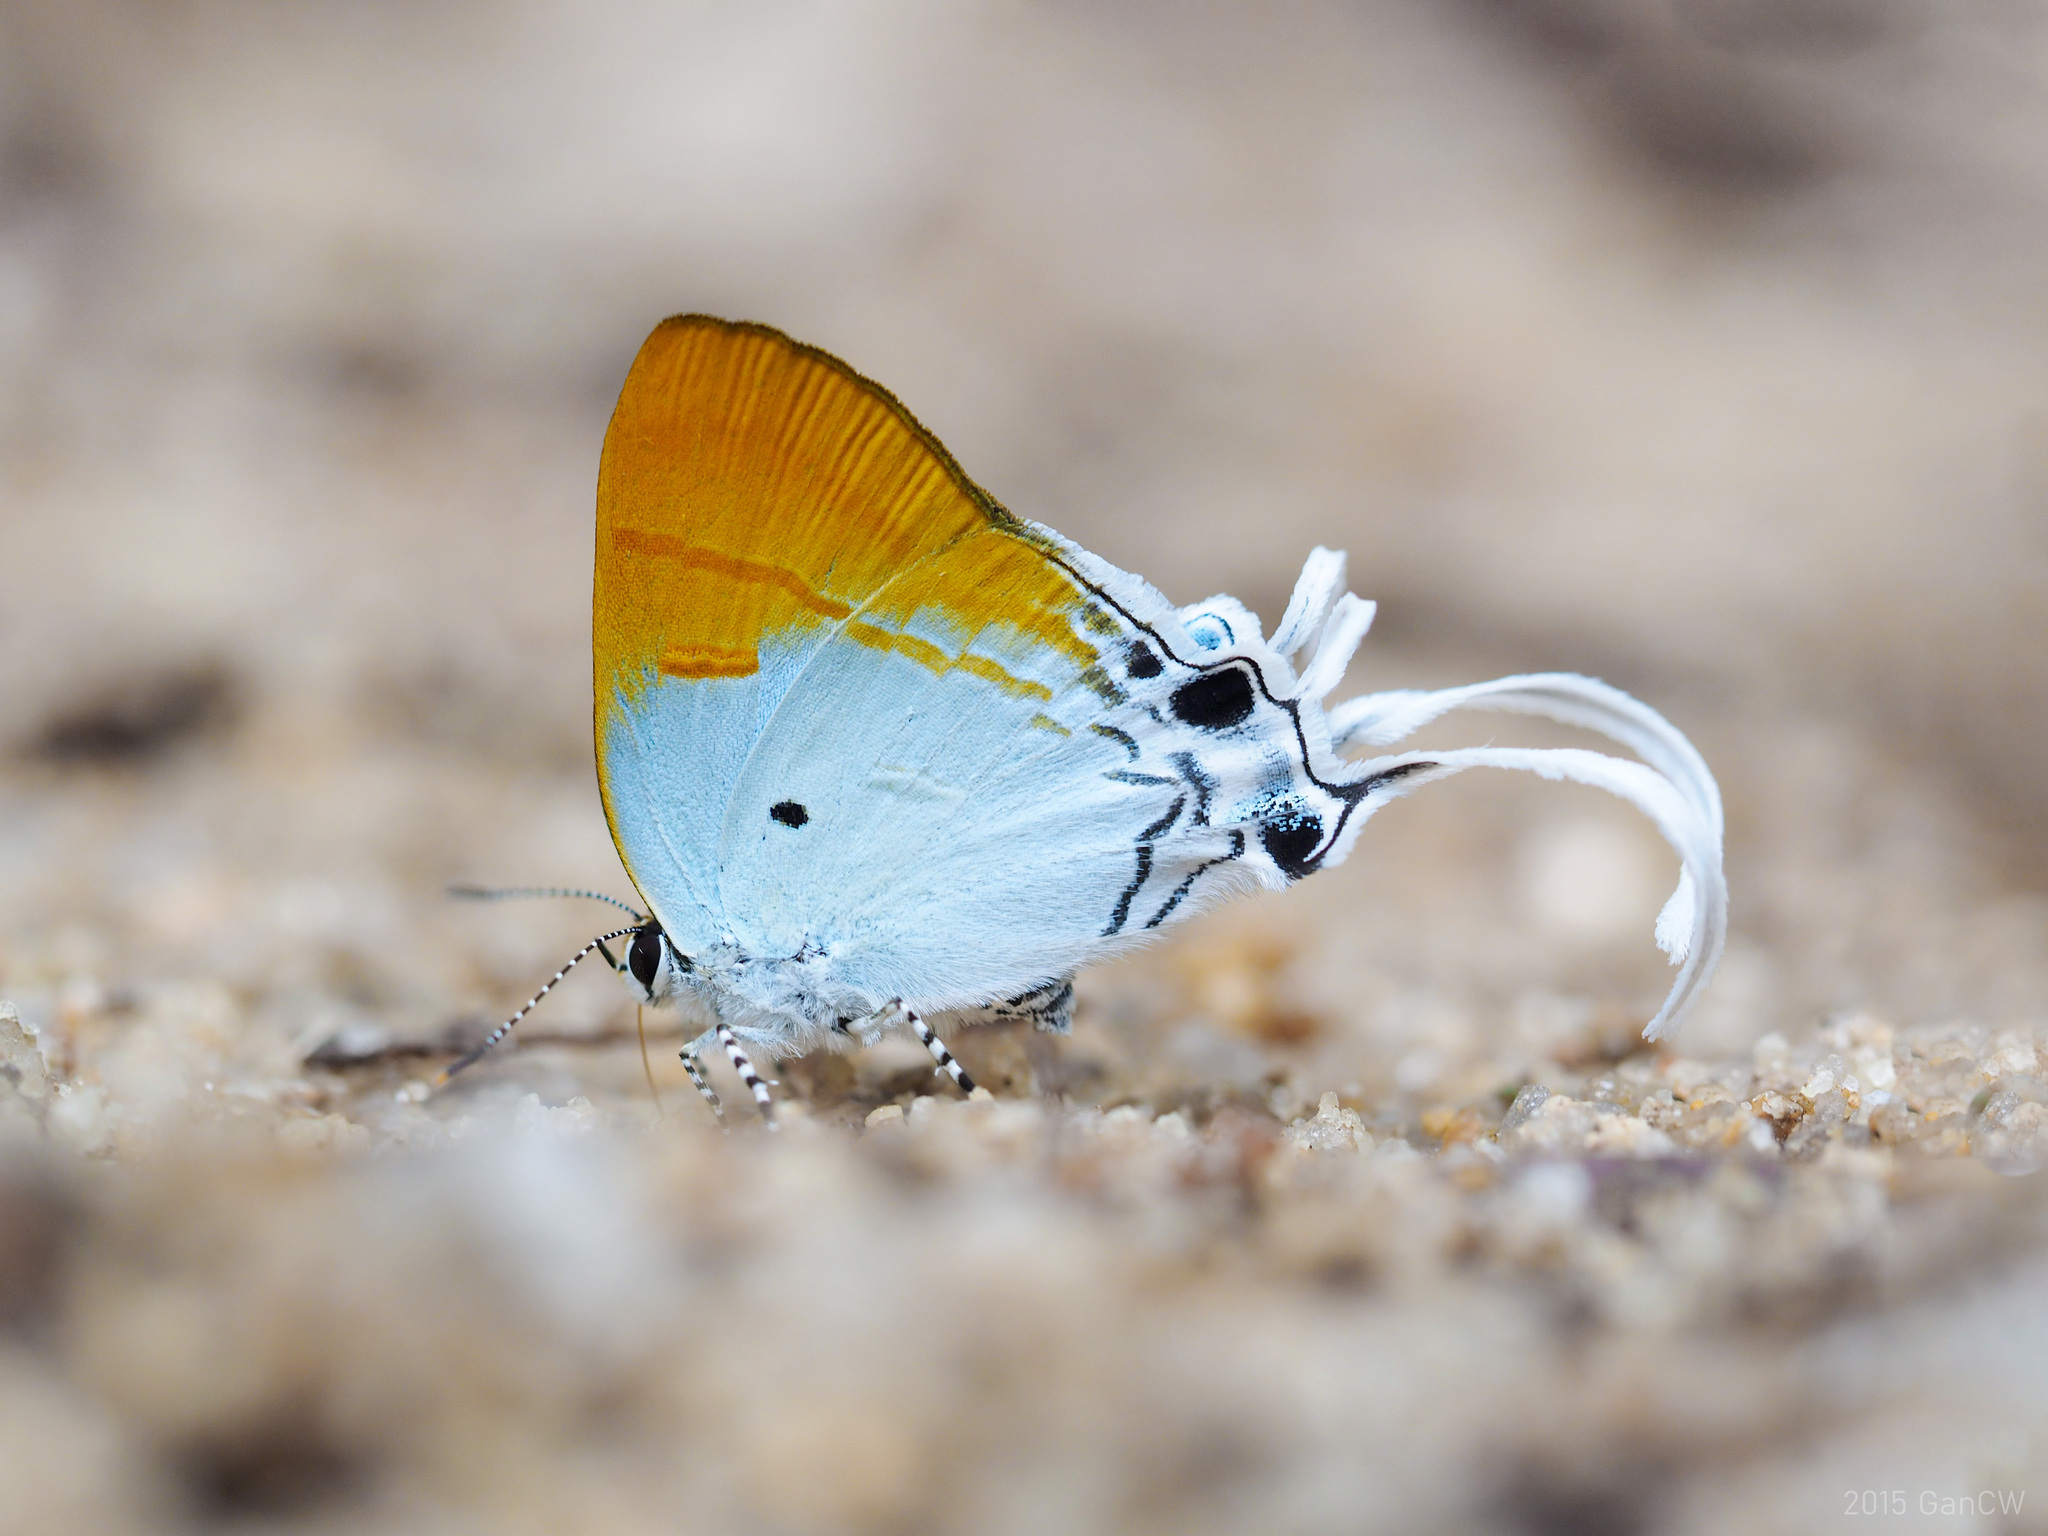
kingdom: Animalia
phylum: Arthropoda
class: Insecta
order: Lepidoptera
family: Lycaenidae
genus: Zeltus
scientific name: Zeltus amasa
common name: Fluffy tit
